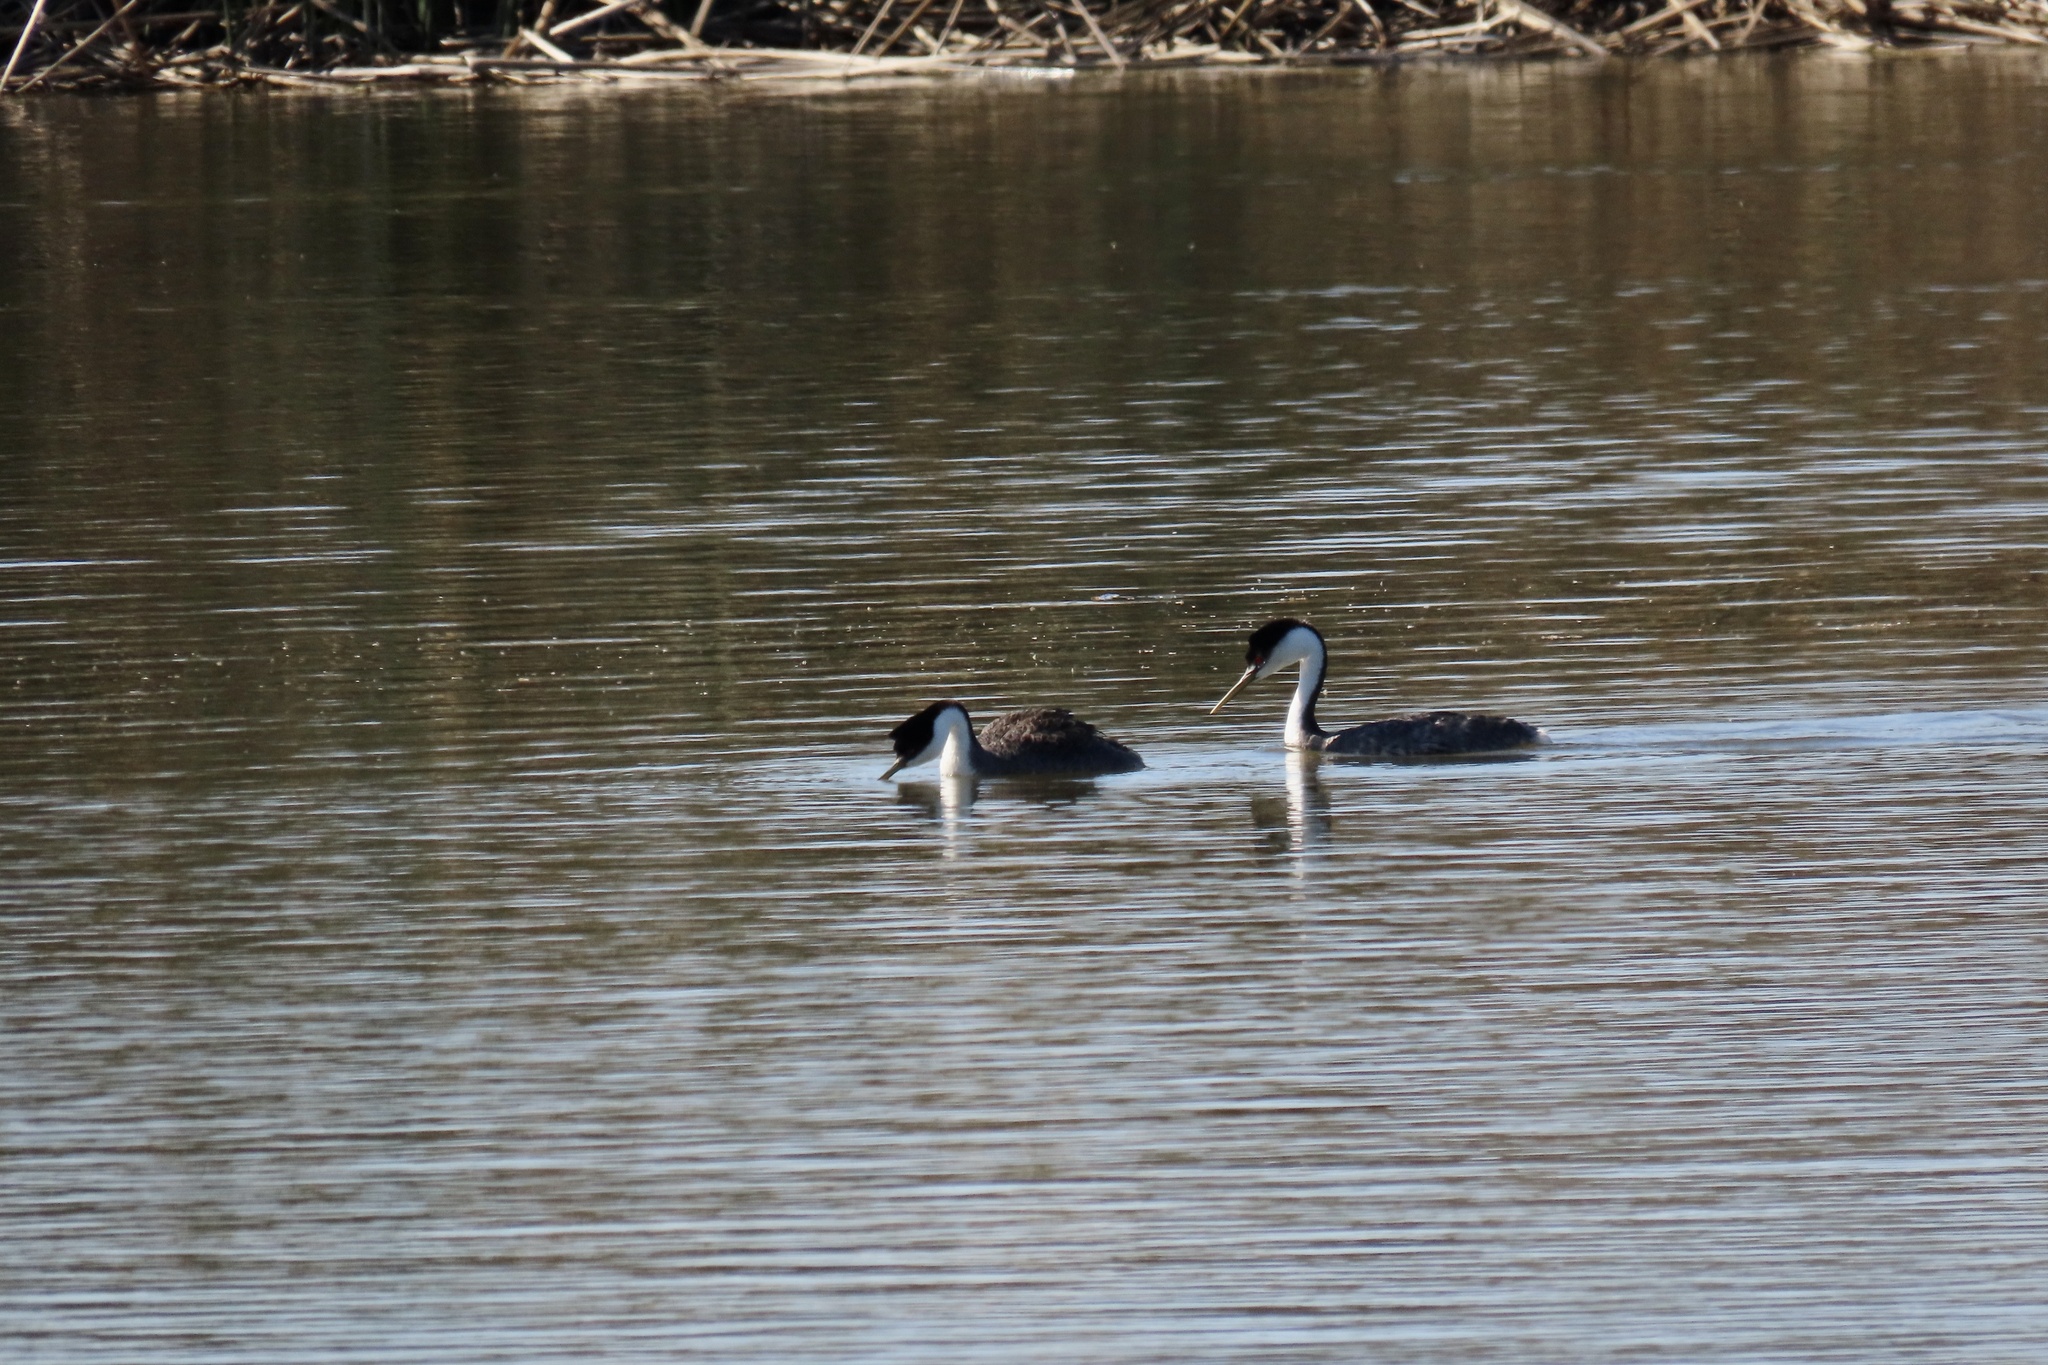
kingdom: Animalia
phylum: Chordata
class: Aves
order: Podicipediformes
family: Podicipedidae
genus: Aechmophorus
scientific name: Aechmophorus occidentalis
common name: Western grebe
